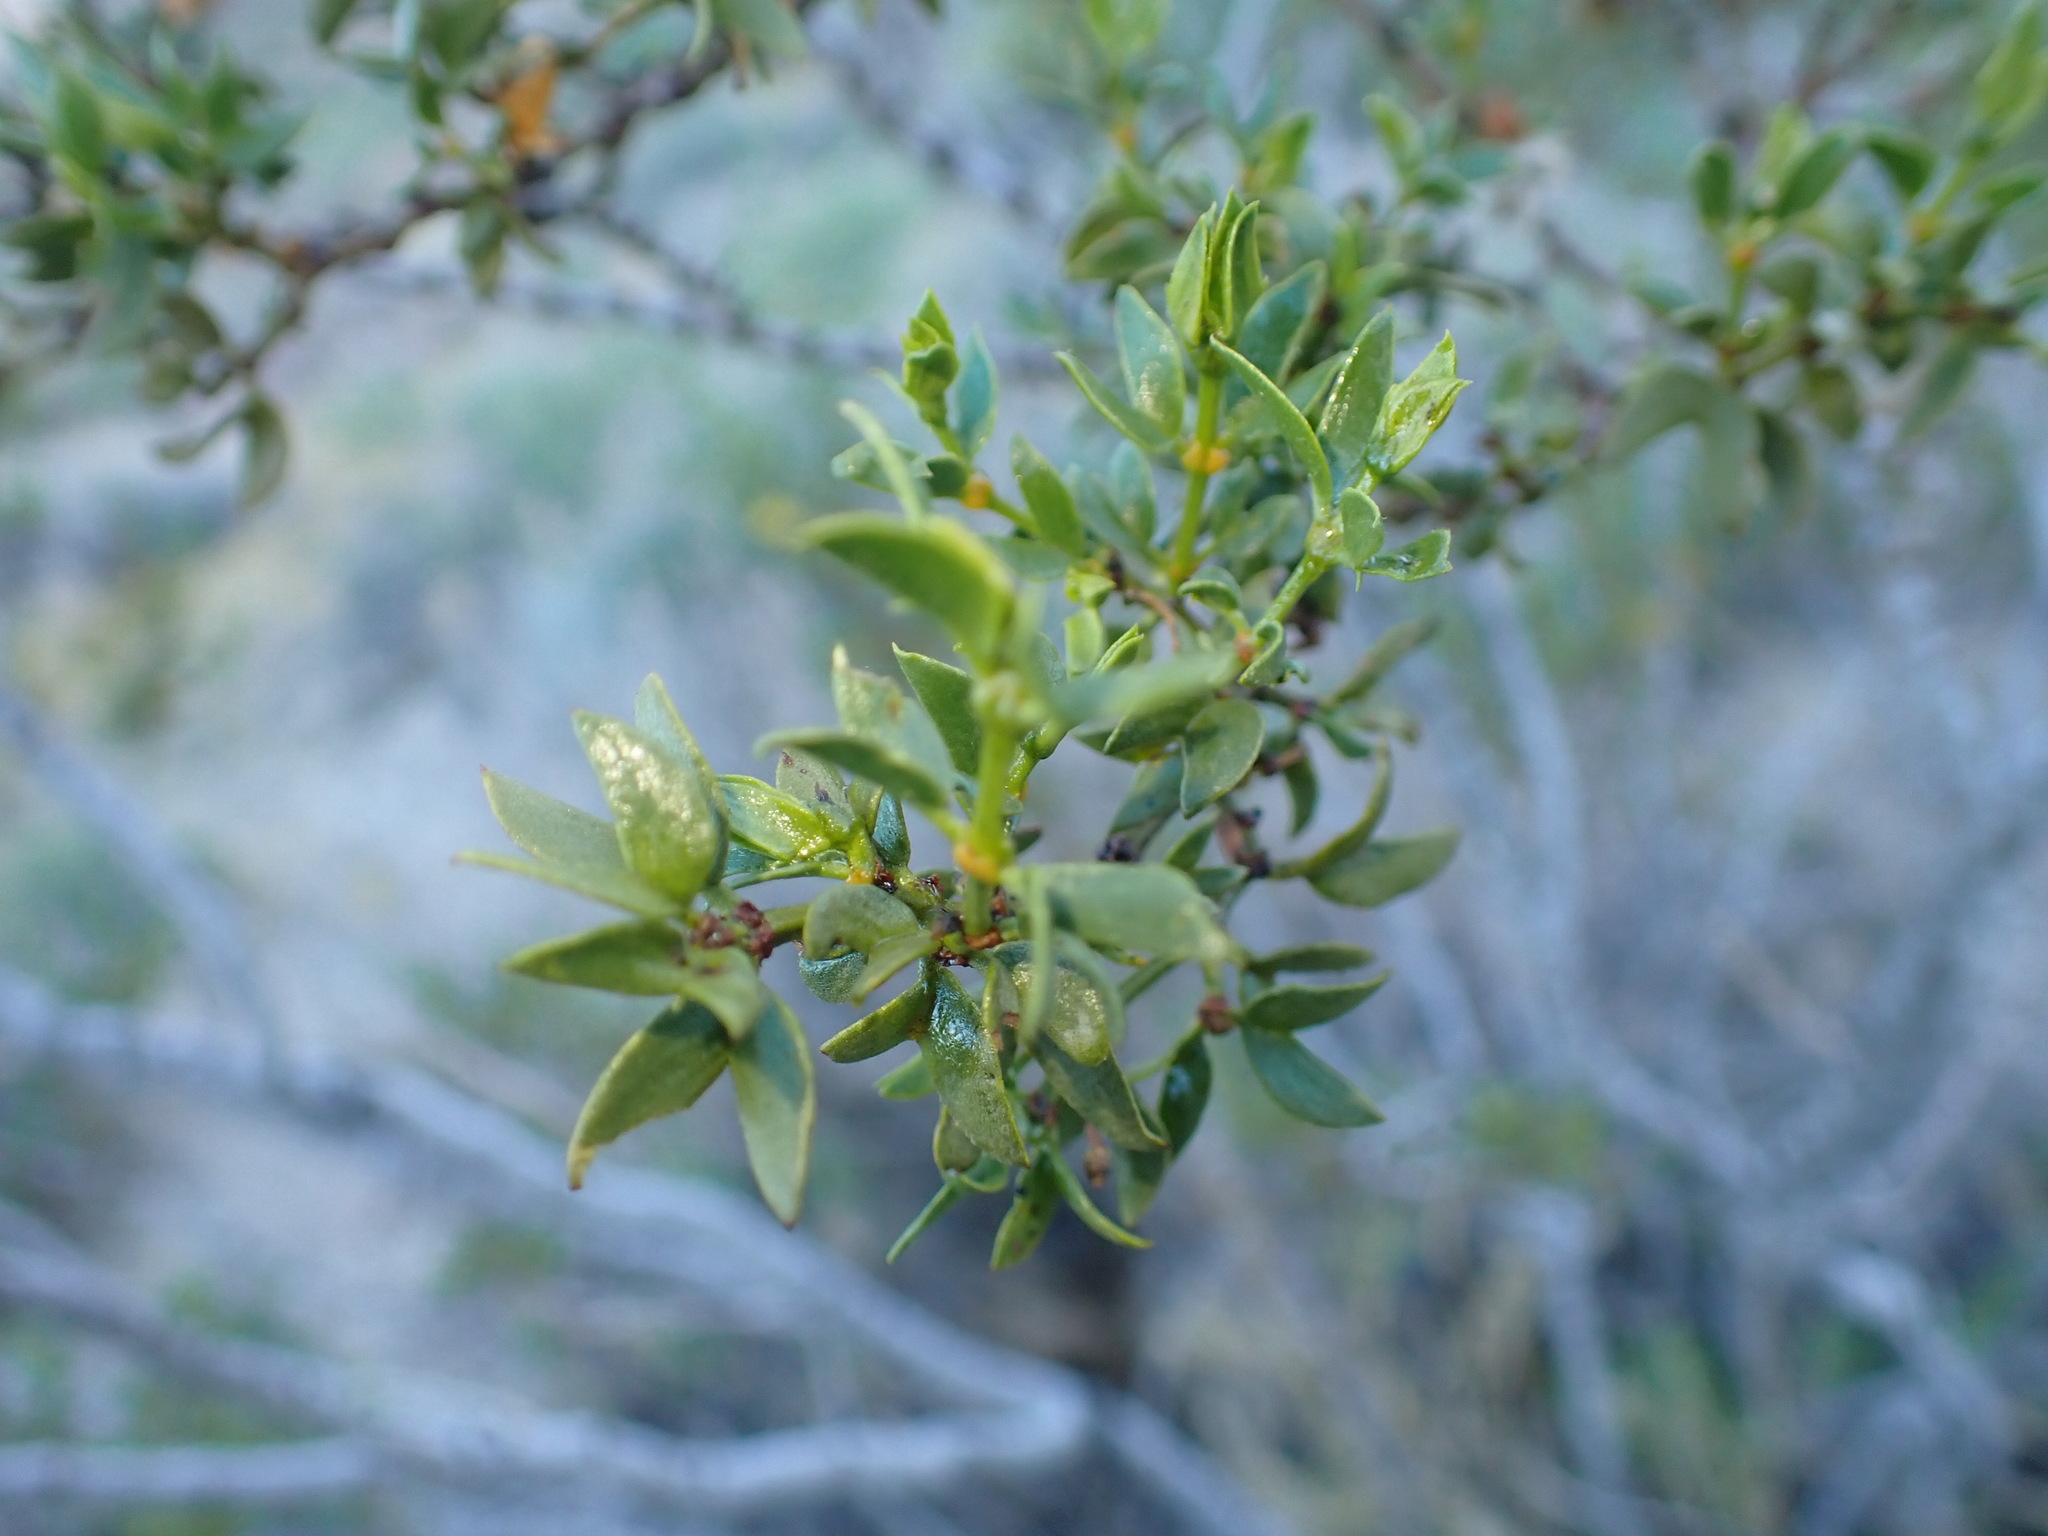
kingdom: Plantae
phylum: Tracheophyta
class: Magnoliopsida
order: Zygophyllales
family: Zygophyllaceae
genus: Larrea
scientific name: Larrea tridentata
